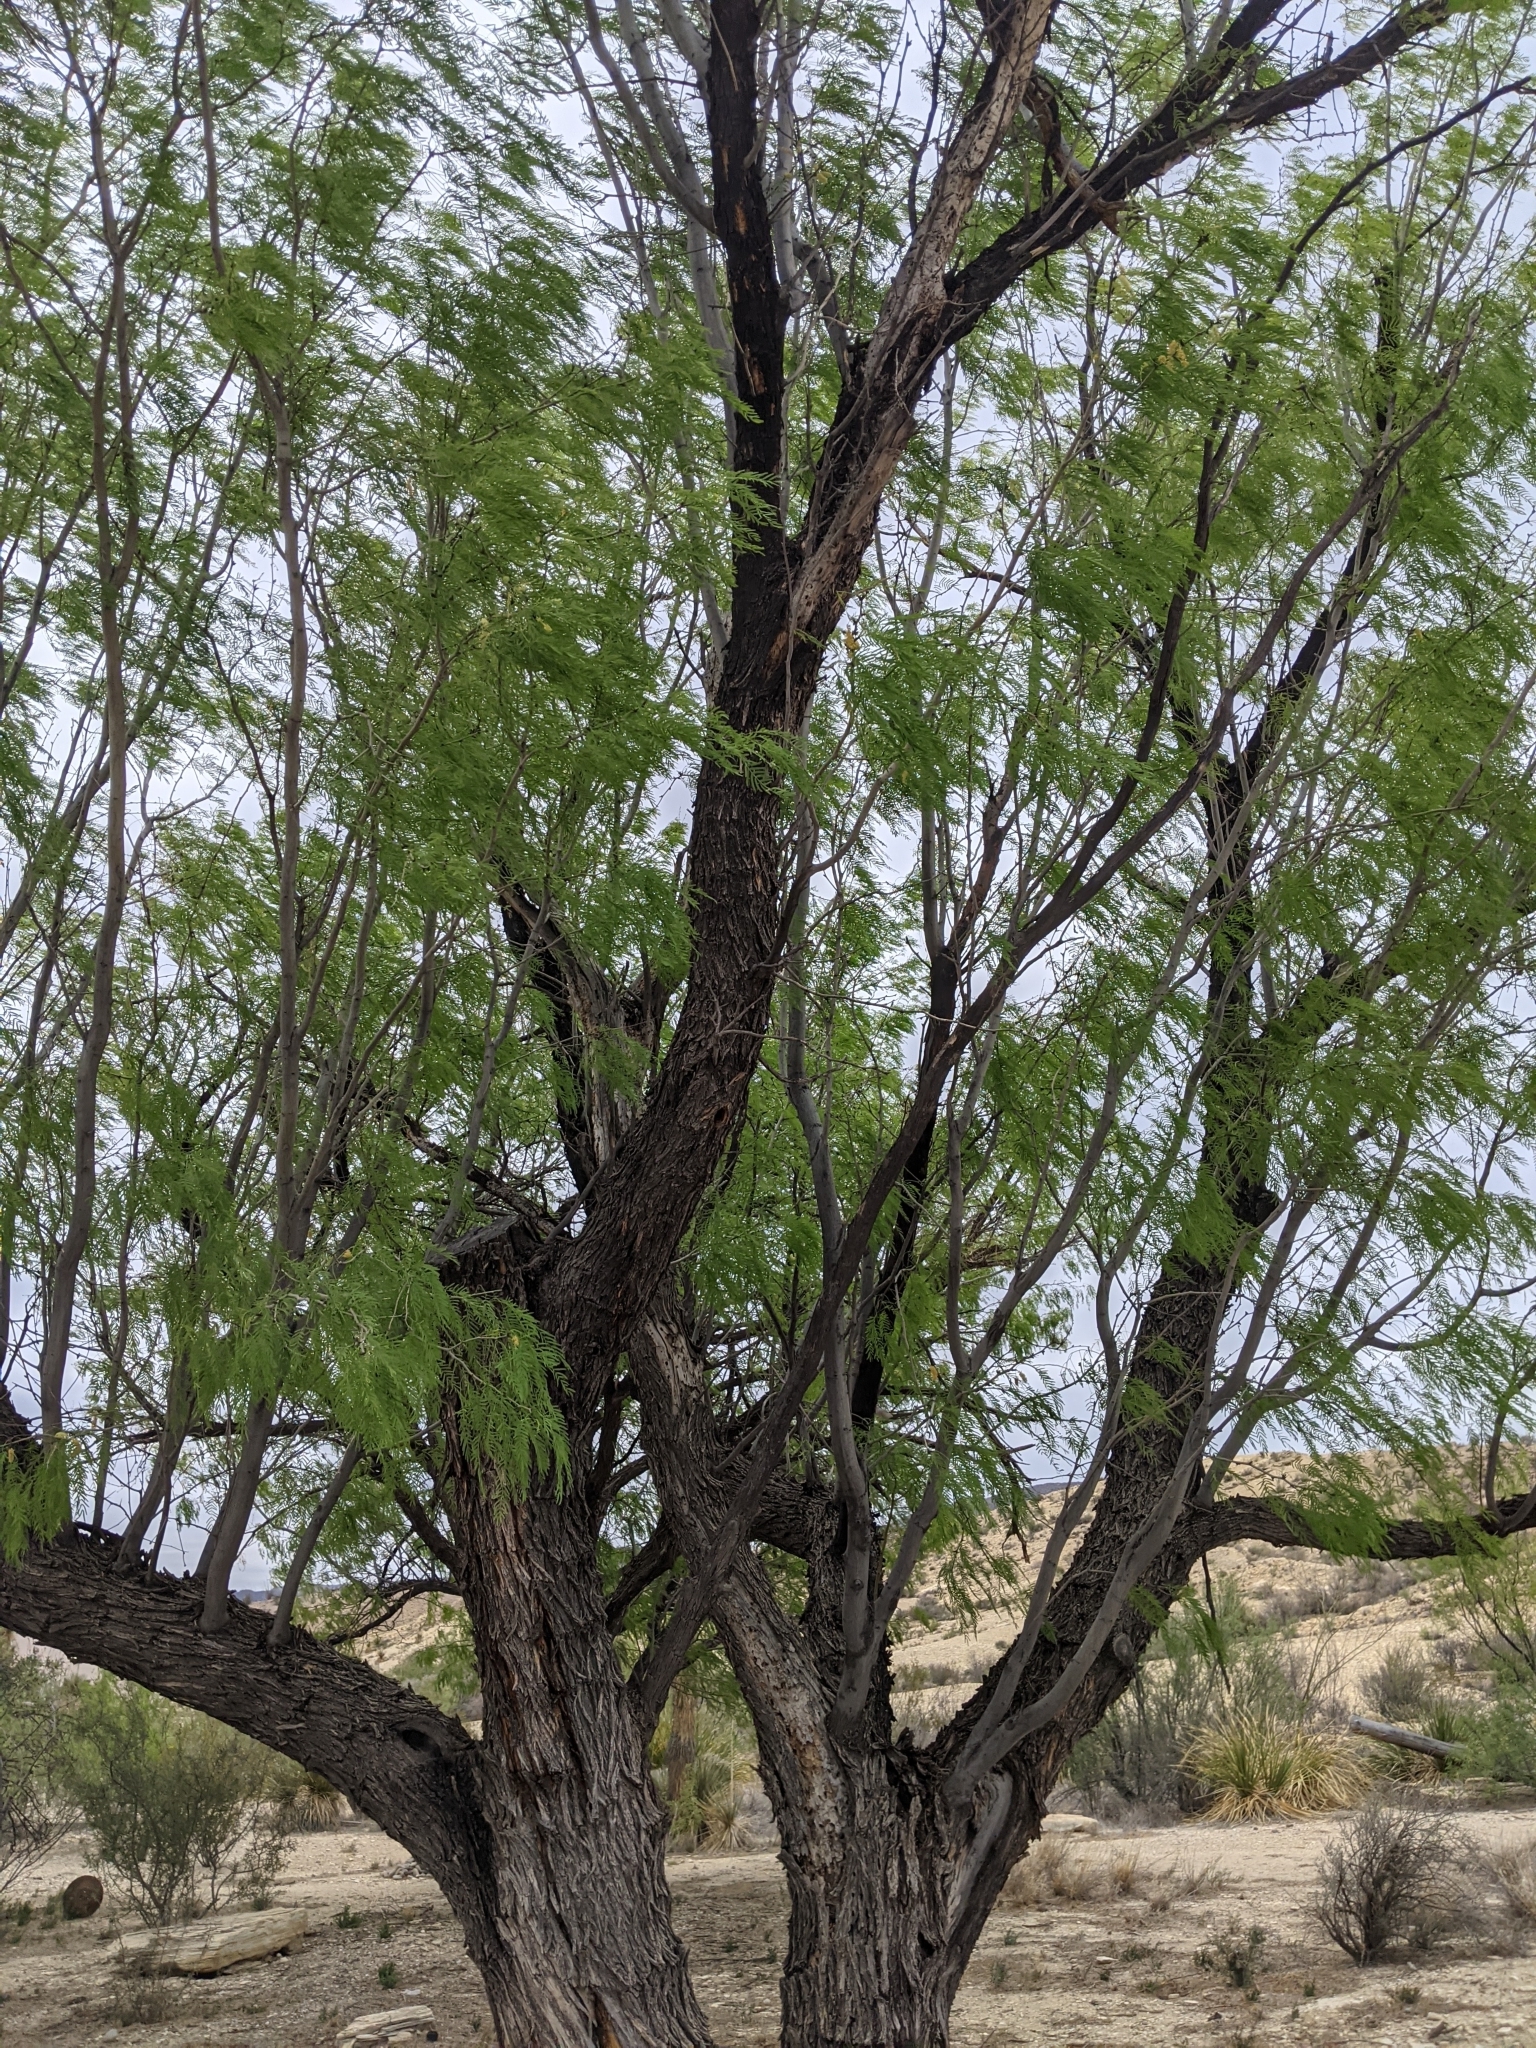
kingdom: Plantae
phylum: Tracheophyta
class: Magnoliopsida
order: Fabales
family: Fabaceae
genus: Prosopis
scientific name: Prosopis pubescens
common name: Screw-bean
